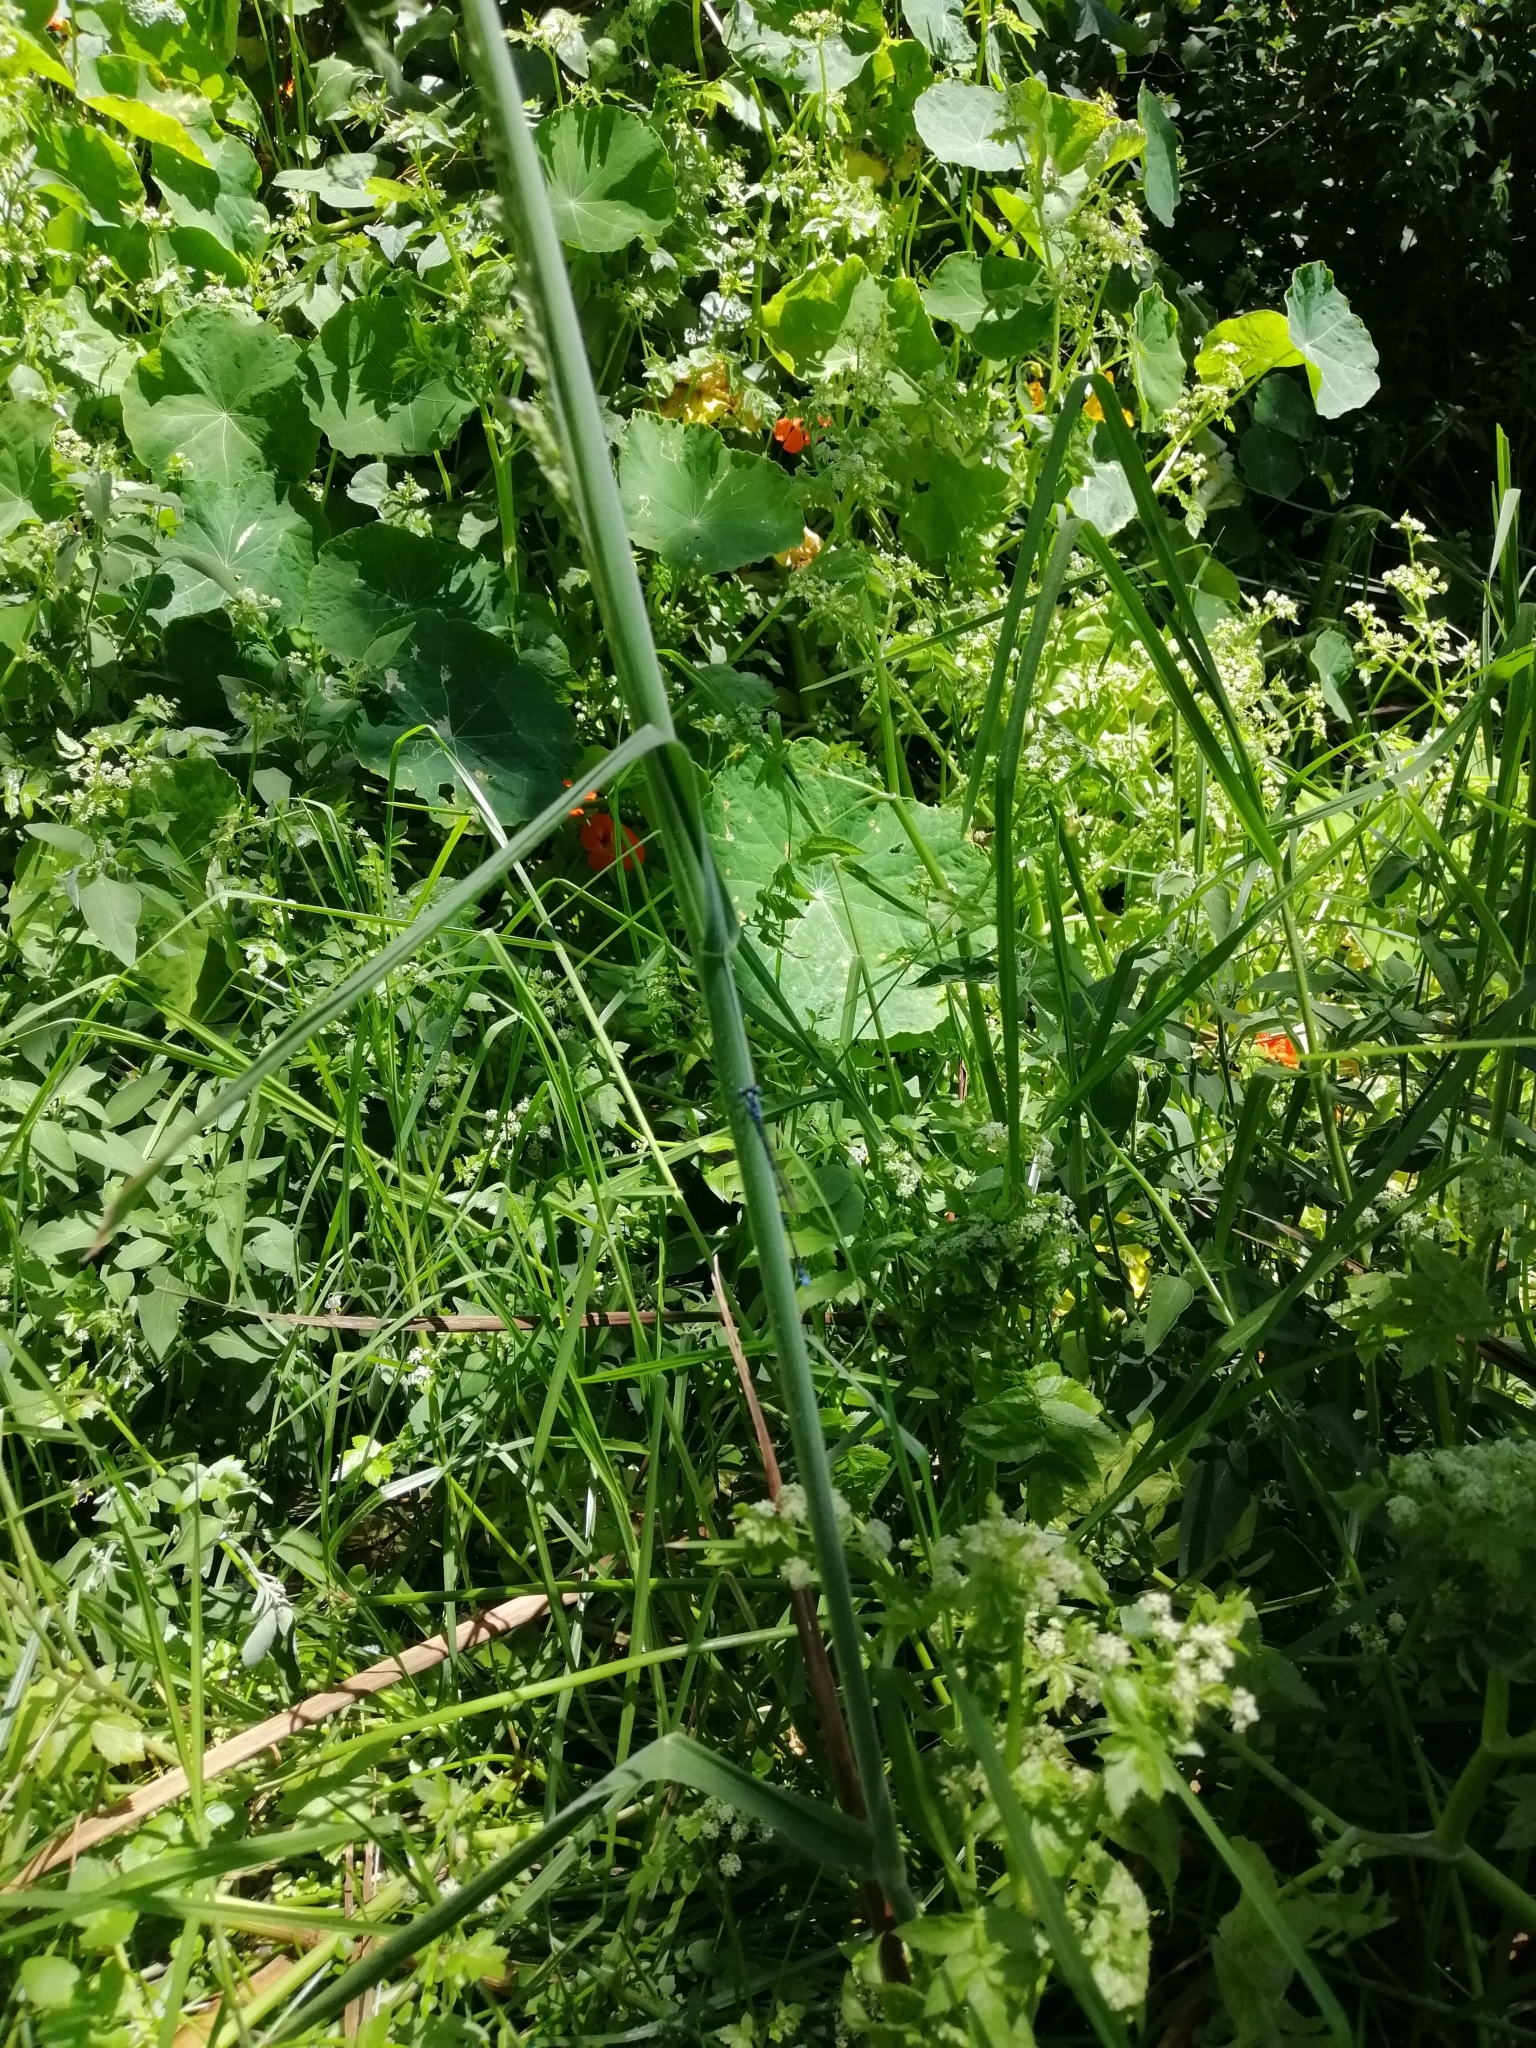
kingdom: Animalia
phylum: Arthropoda
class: Insecta
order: Odonata
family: Lestidae
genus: Austrolestes
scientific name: Austrolestes colensonis
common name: Blue damselfly
